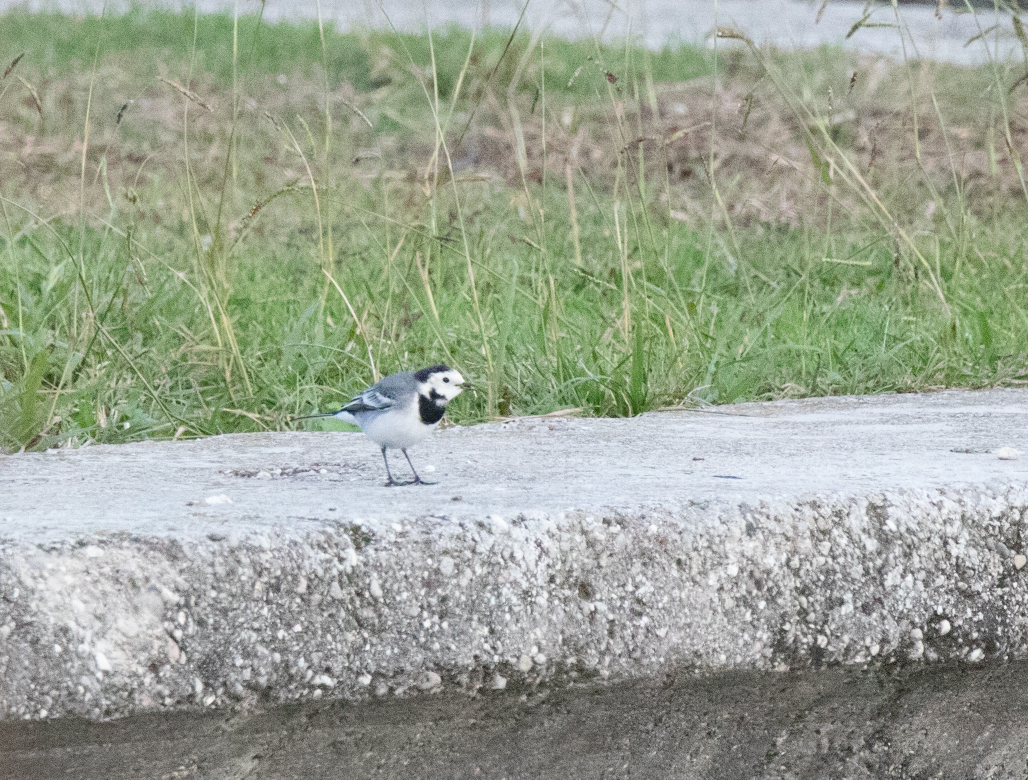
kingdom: Animalia
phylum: Chordata
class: Aves
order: Passeriformes
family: Motacillidae
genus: Motacilla
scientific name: Motacilla alba
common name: White wagtail
